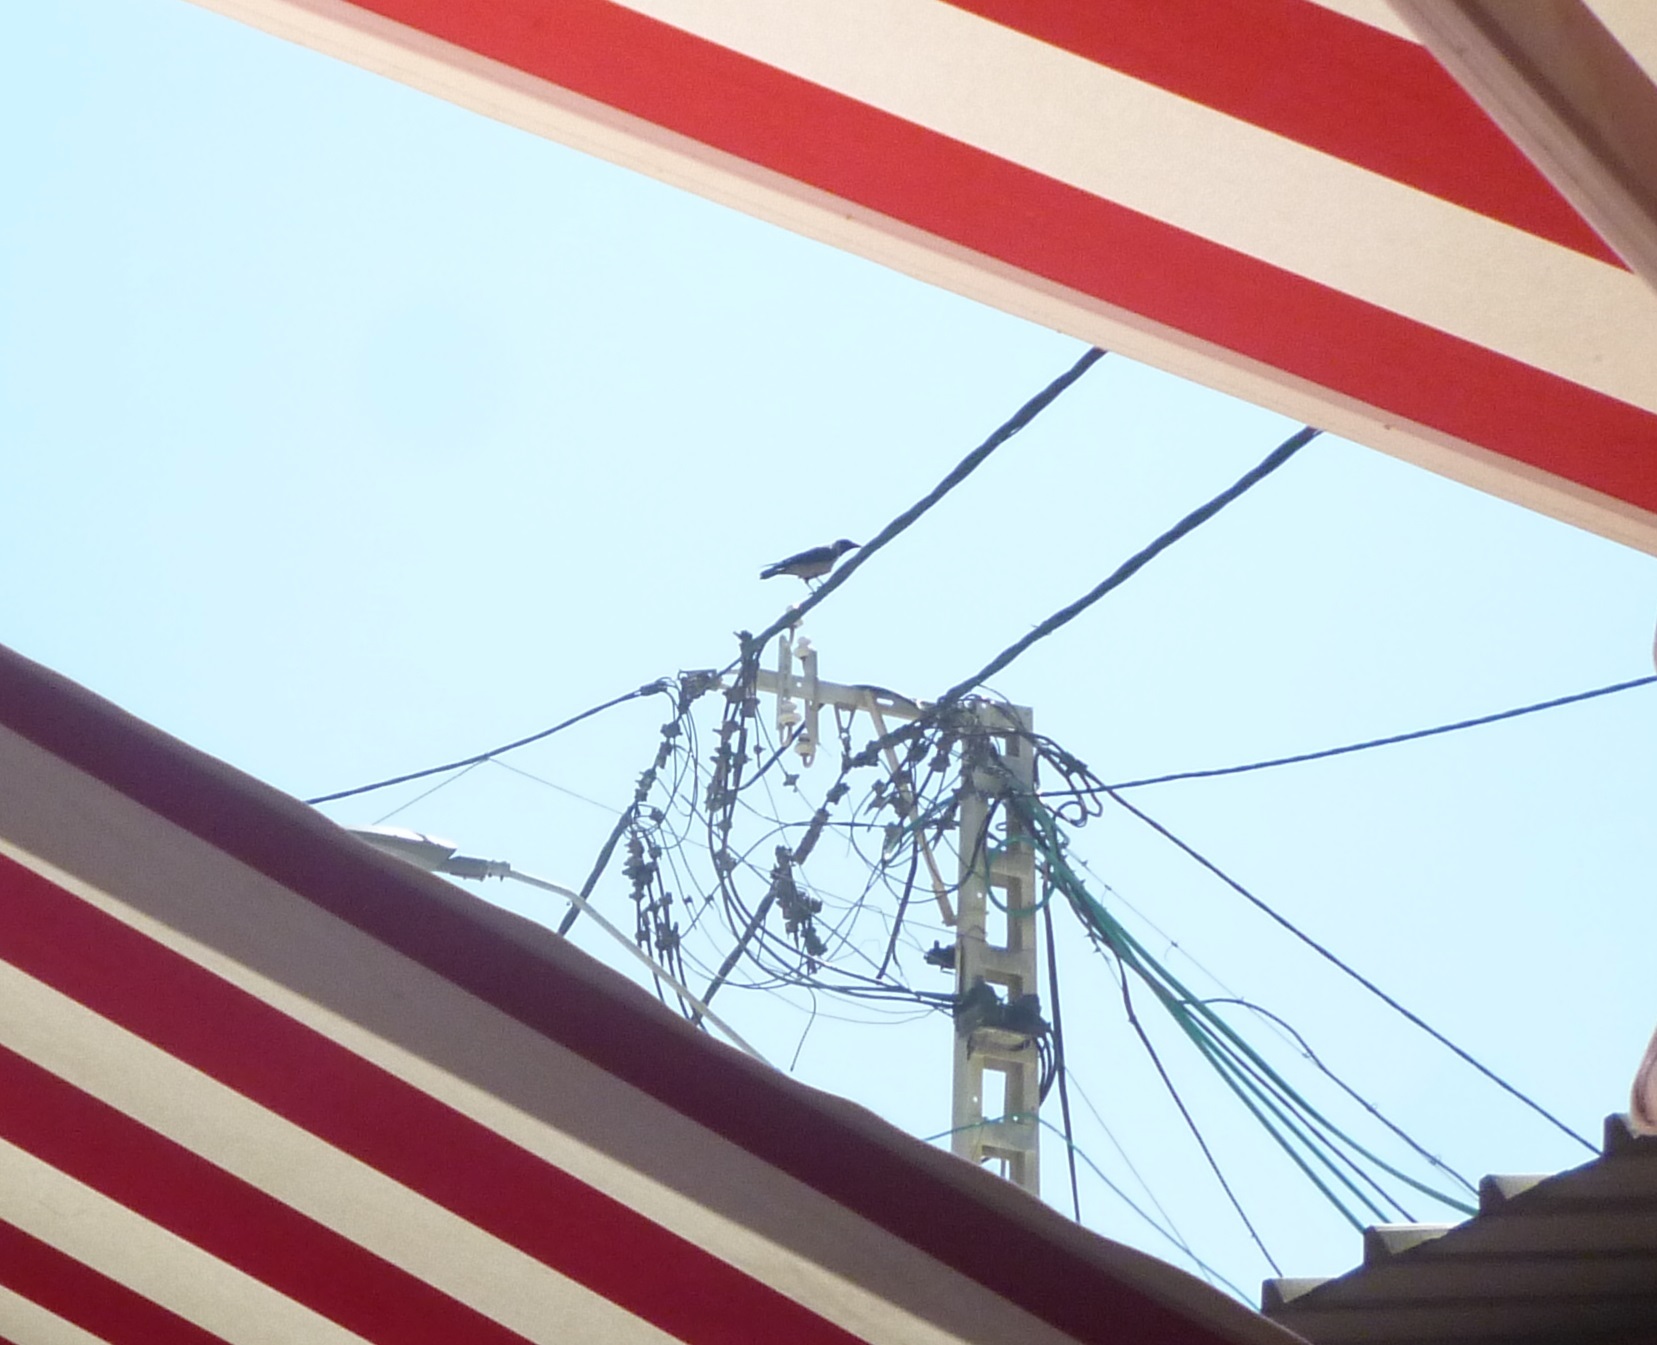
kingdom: Animalia
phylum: Chordata
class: Aves
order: Passeriformes
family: Corvidae
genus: Corvus
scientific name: Corvus cornix
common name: Hooded crow
